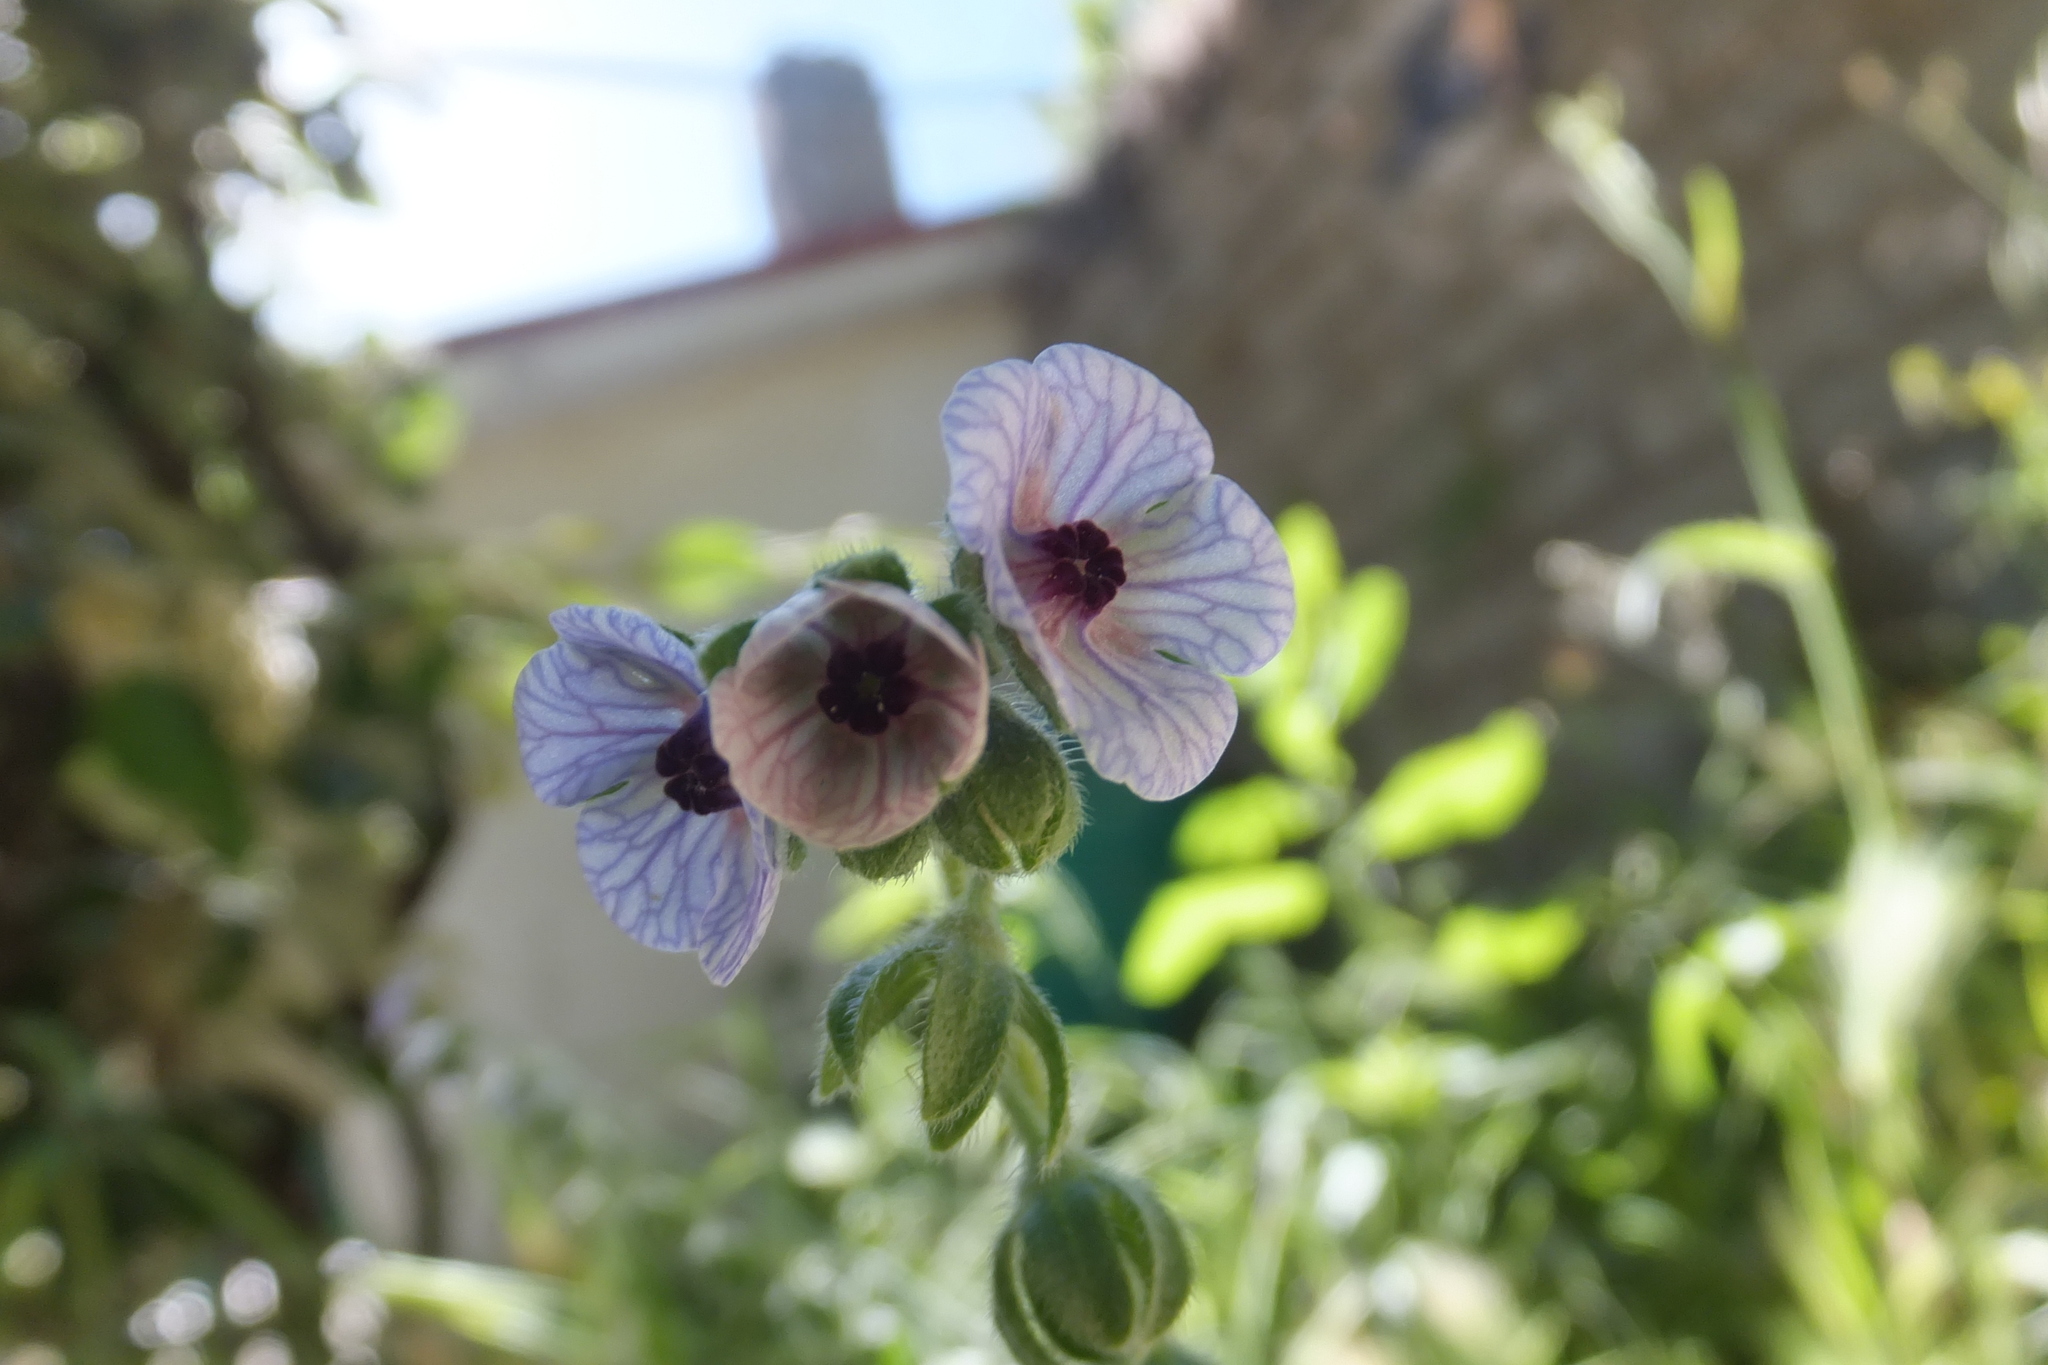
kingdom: Plantae
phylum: Tracheophyta
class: Magnoliopsida
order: Boraginales
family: Boraginaceae
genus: Cynoglossum
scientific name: Cynoglossum creticum
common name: Blue hound's tongue
